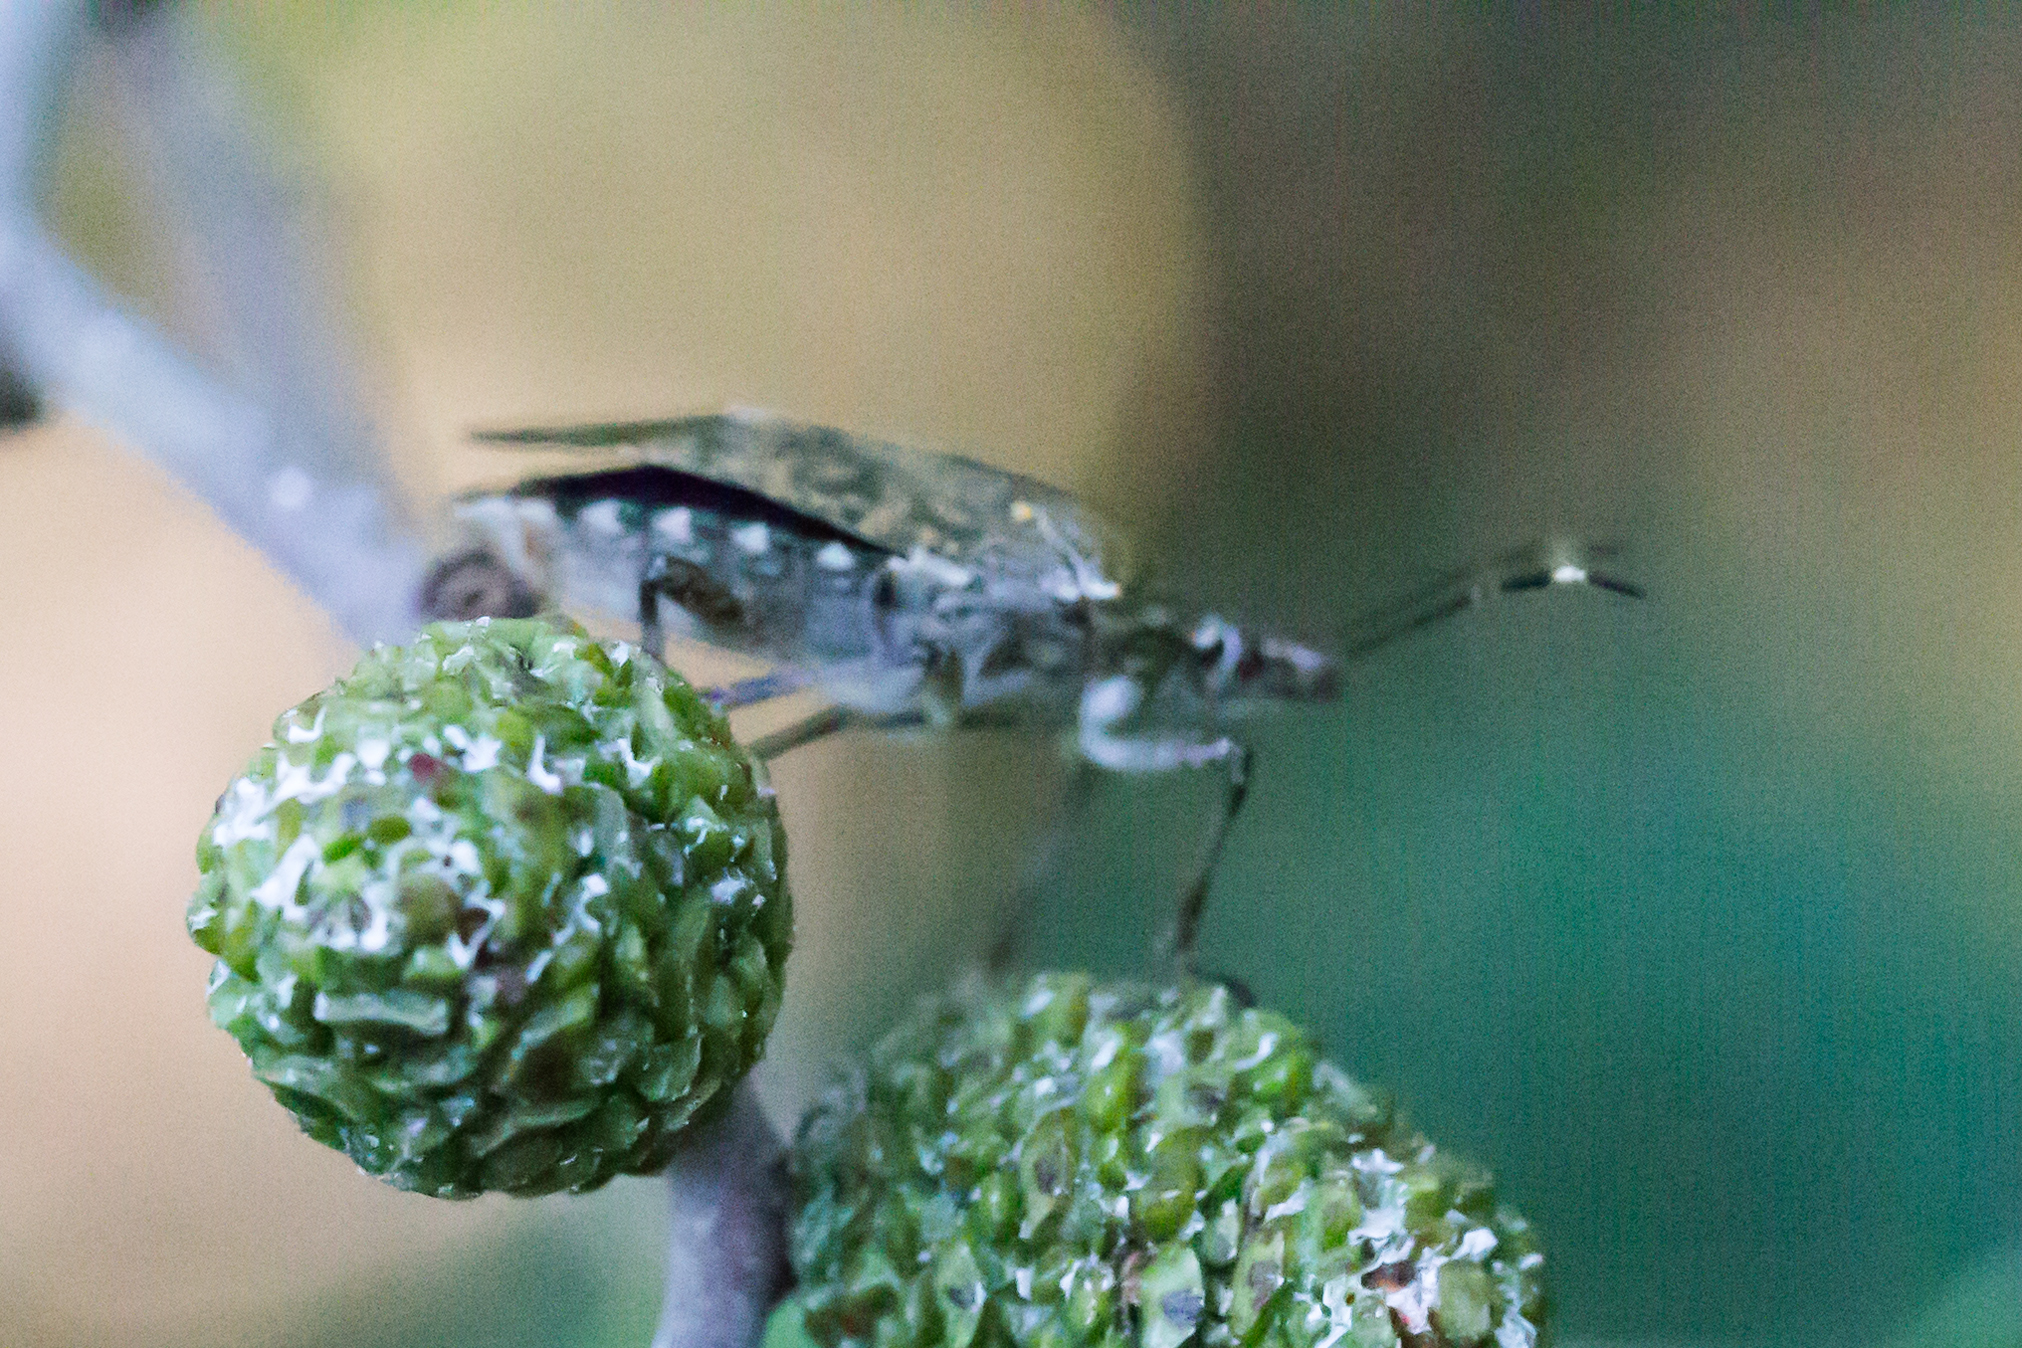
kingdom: Animalia
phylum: Arthropoda
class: Insecta
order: Hemiptera
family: Pentatomidae
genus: Halyomorpha
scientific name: Halyomorpha halys
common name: Brown marmorated stink bug
